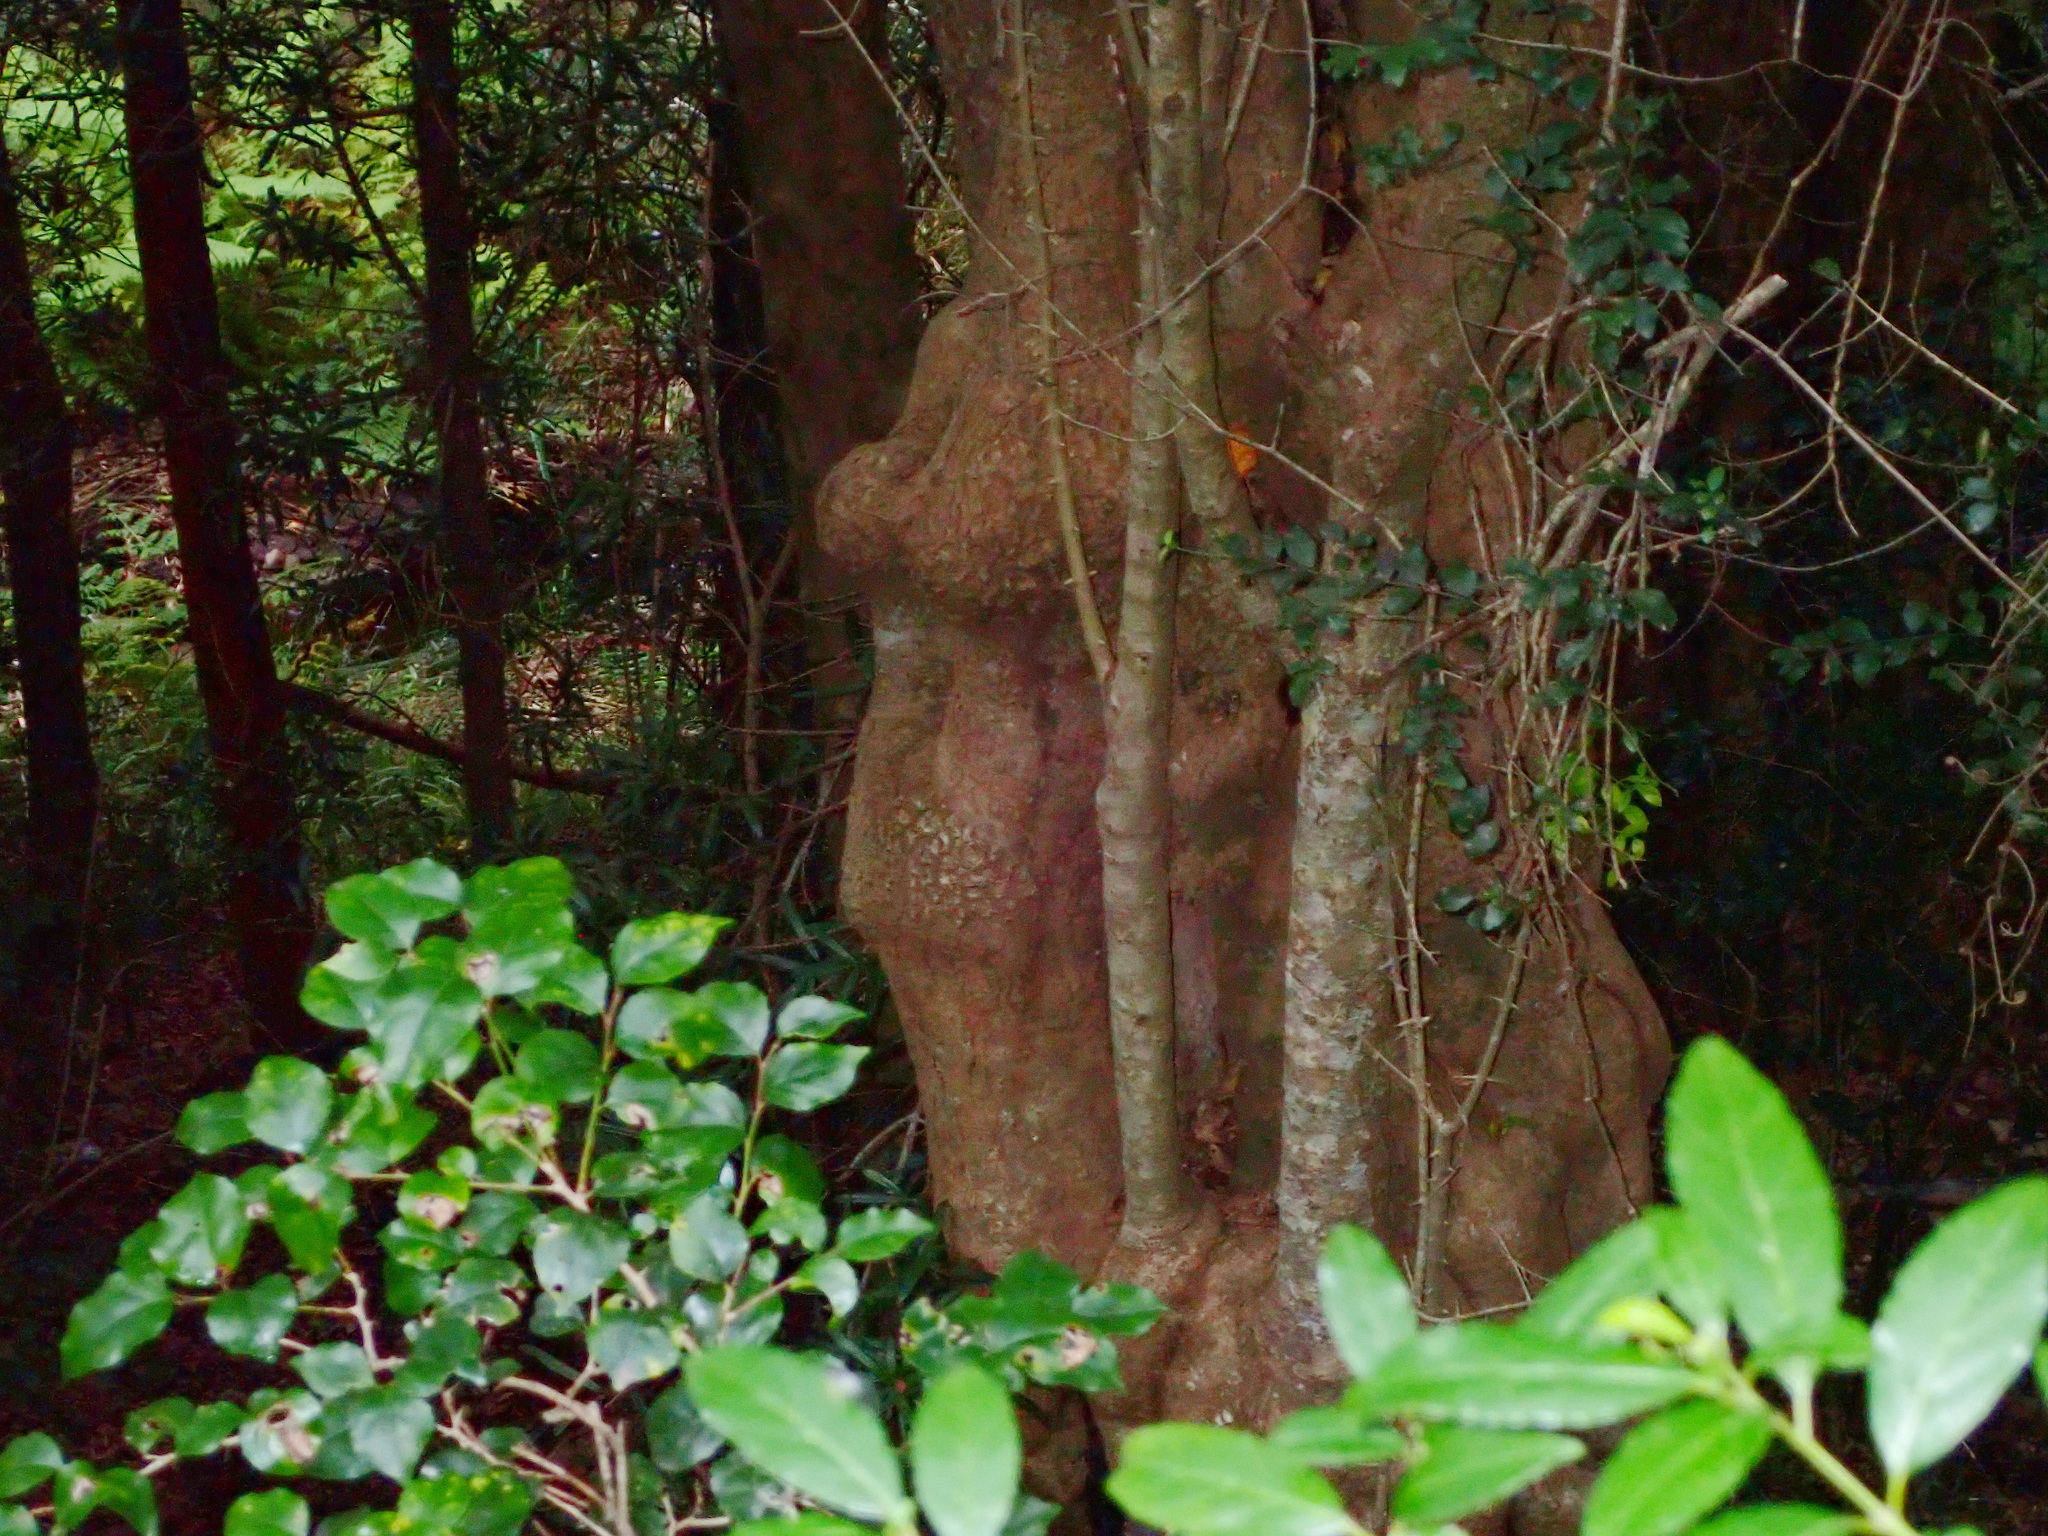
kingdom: Plantae
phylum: Tracheophyta
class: Magnoliopsida
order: Myrtales
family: Penaeaceae
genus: Olinia
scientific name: Olinia ventosa
